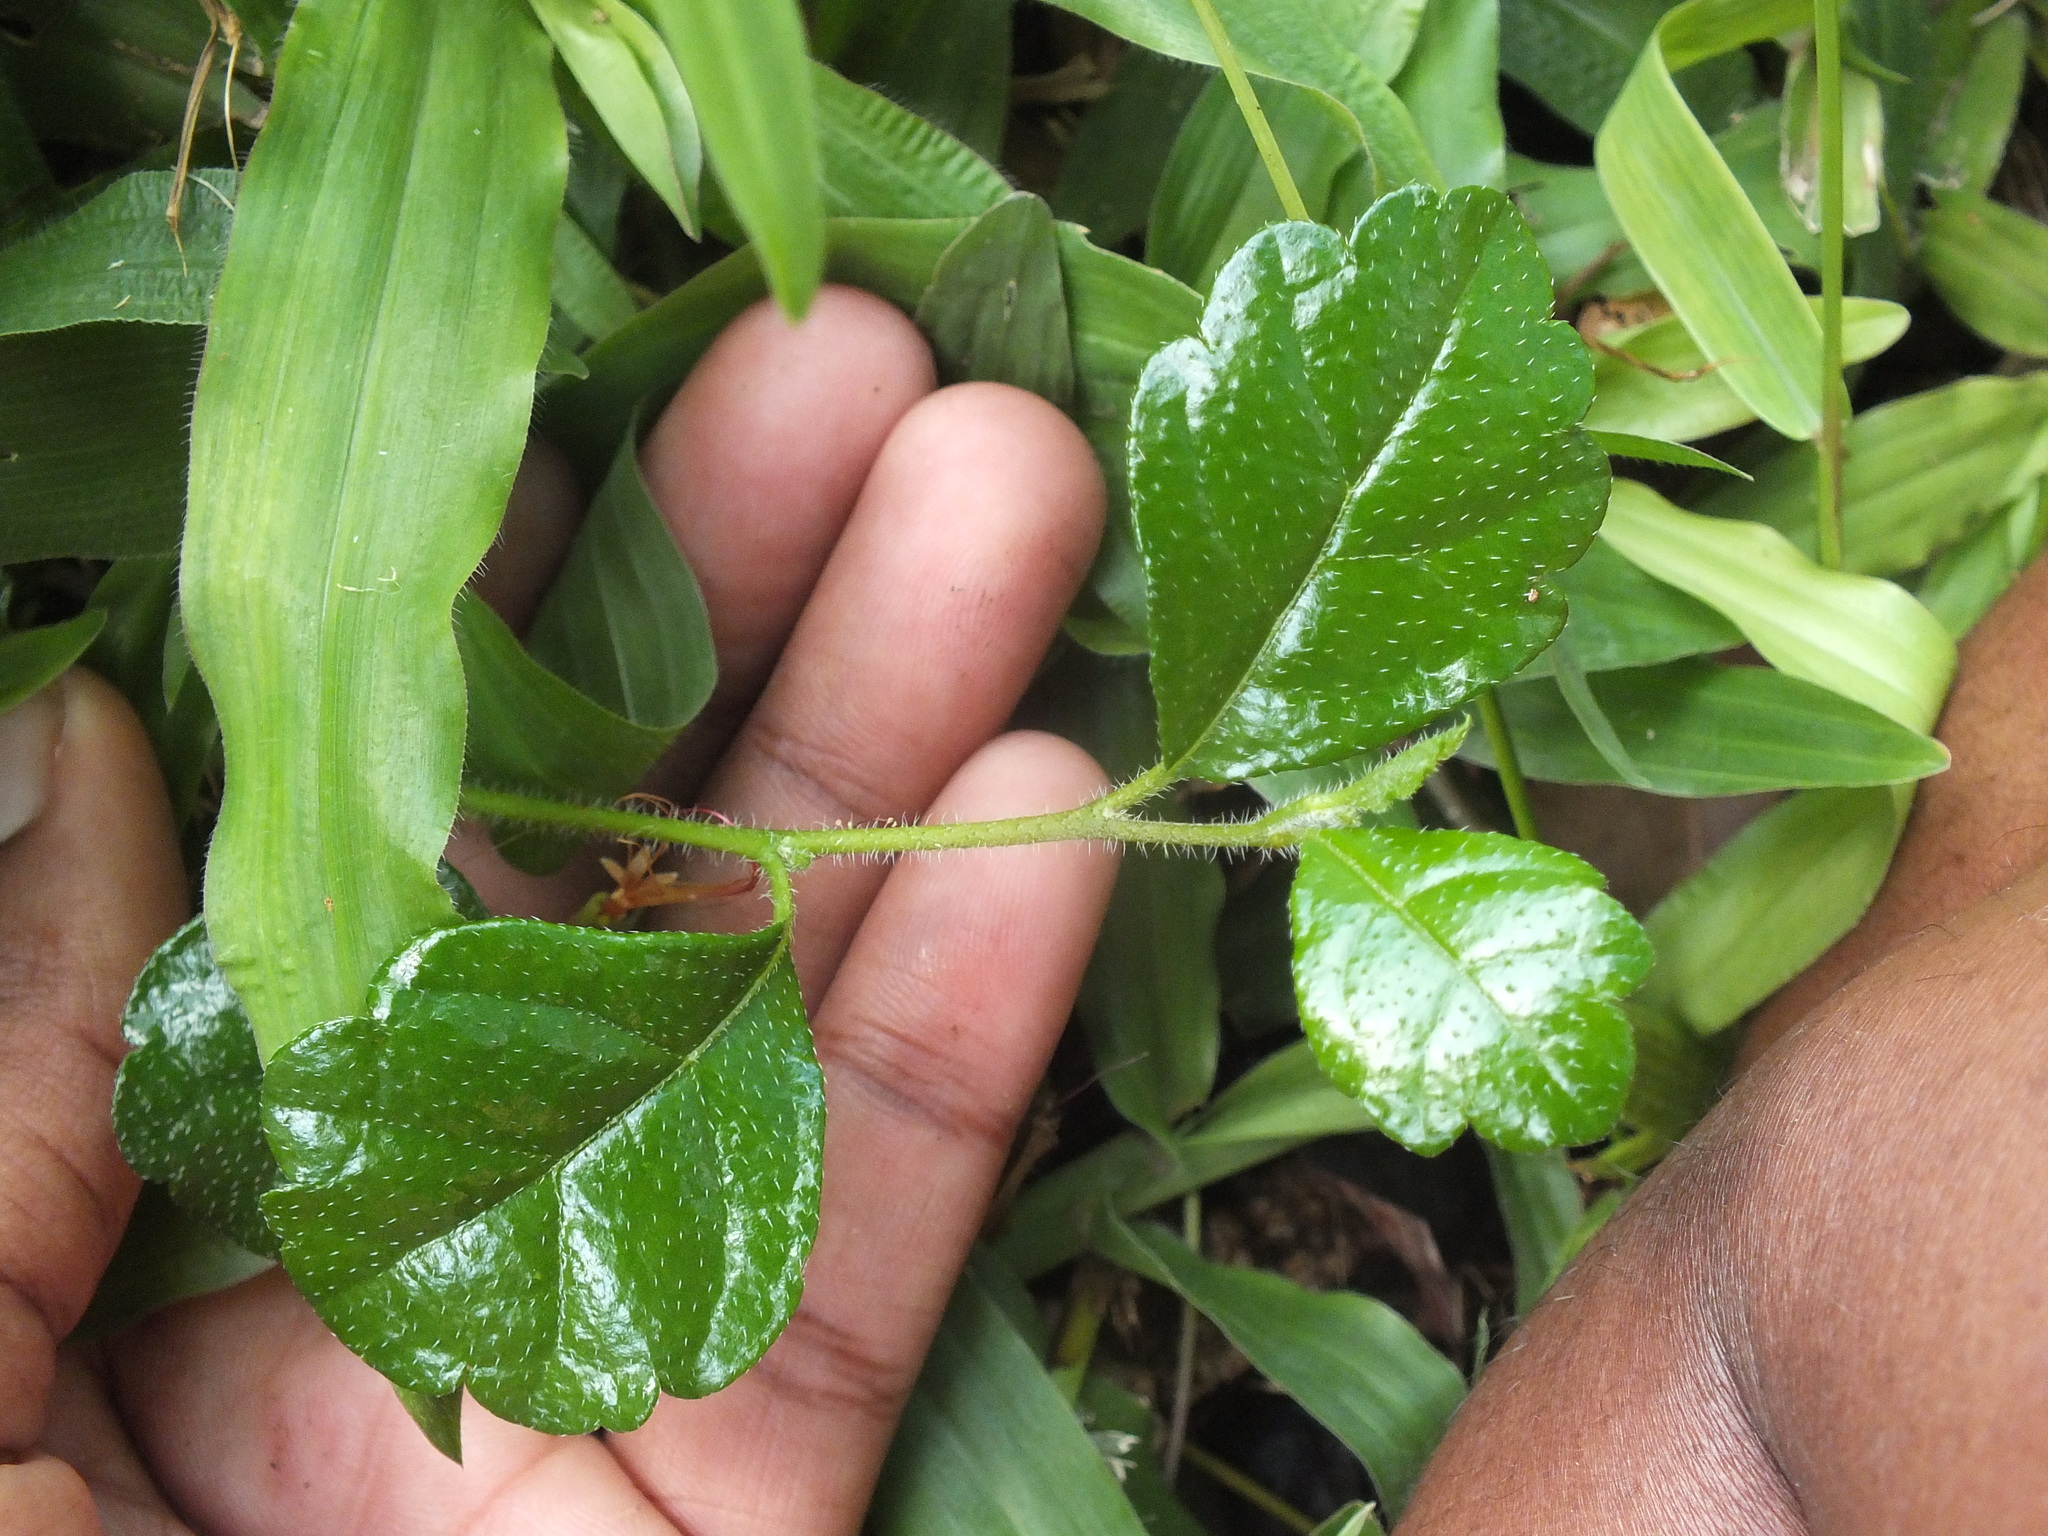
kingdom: Plantae
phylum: Tracheophyta
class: Magnoliopsida
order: Boraginales
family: Ehretiaceae
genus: Ehretia
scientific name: Ehretia microphylla
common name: Fukien-tea
